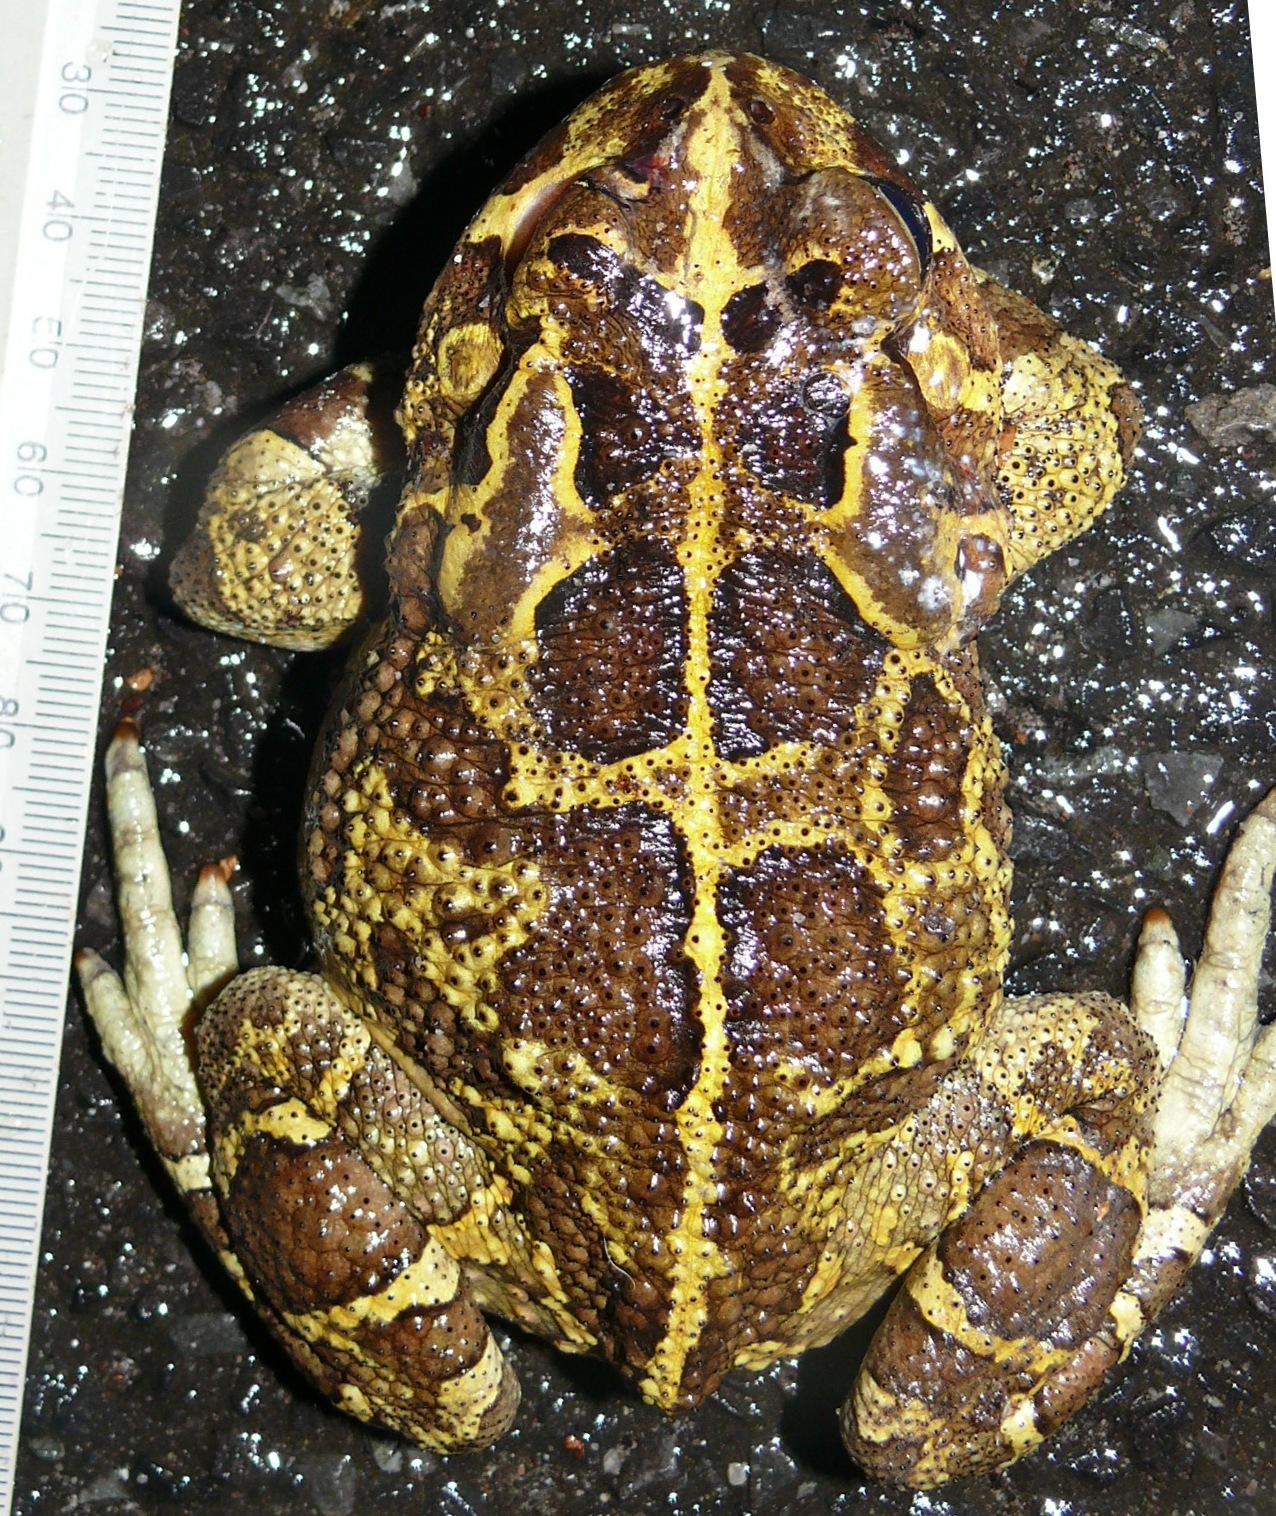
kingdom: Animalia
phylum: Chordata
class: Amphibia
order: Anura
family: Bufonidae
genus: Sclerophrys
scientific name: Sclerophrys pantherina
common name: Panther toad
